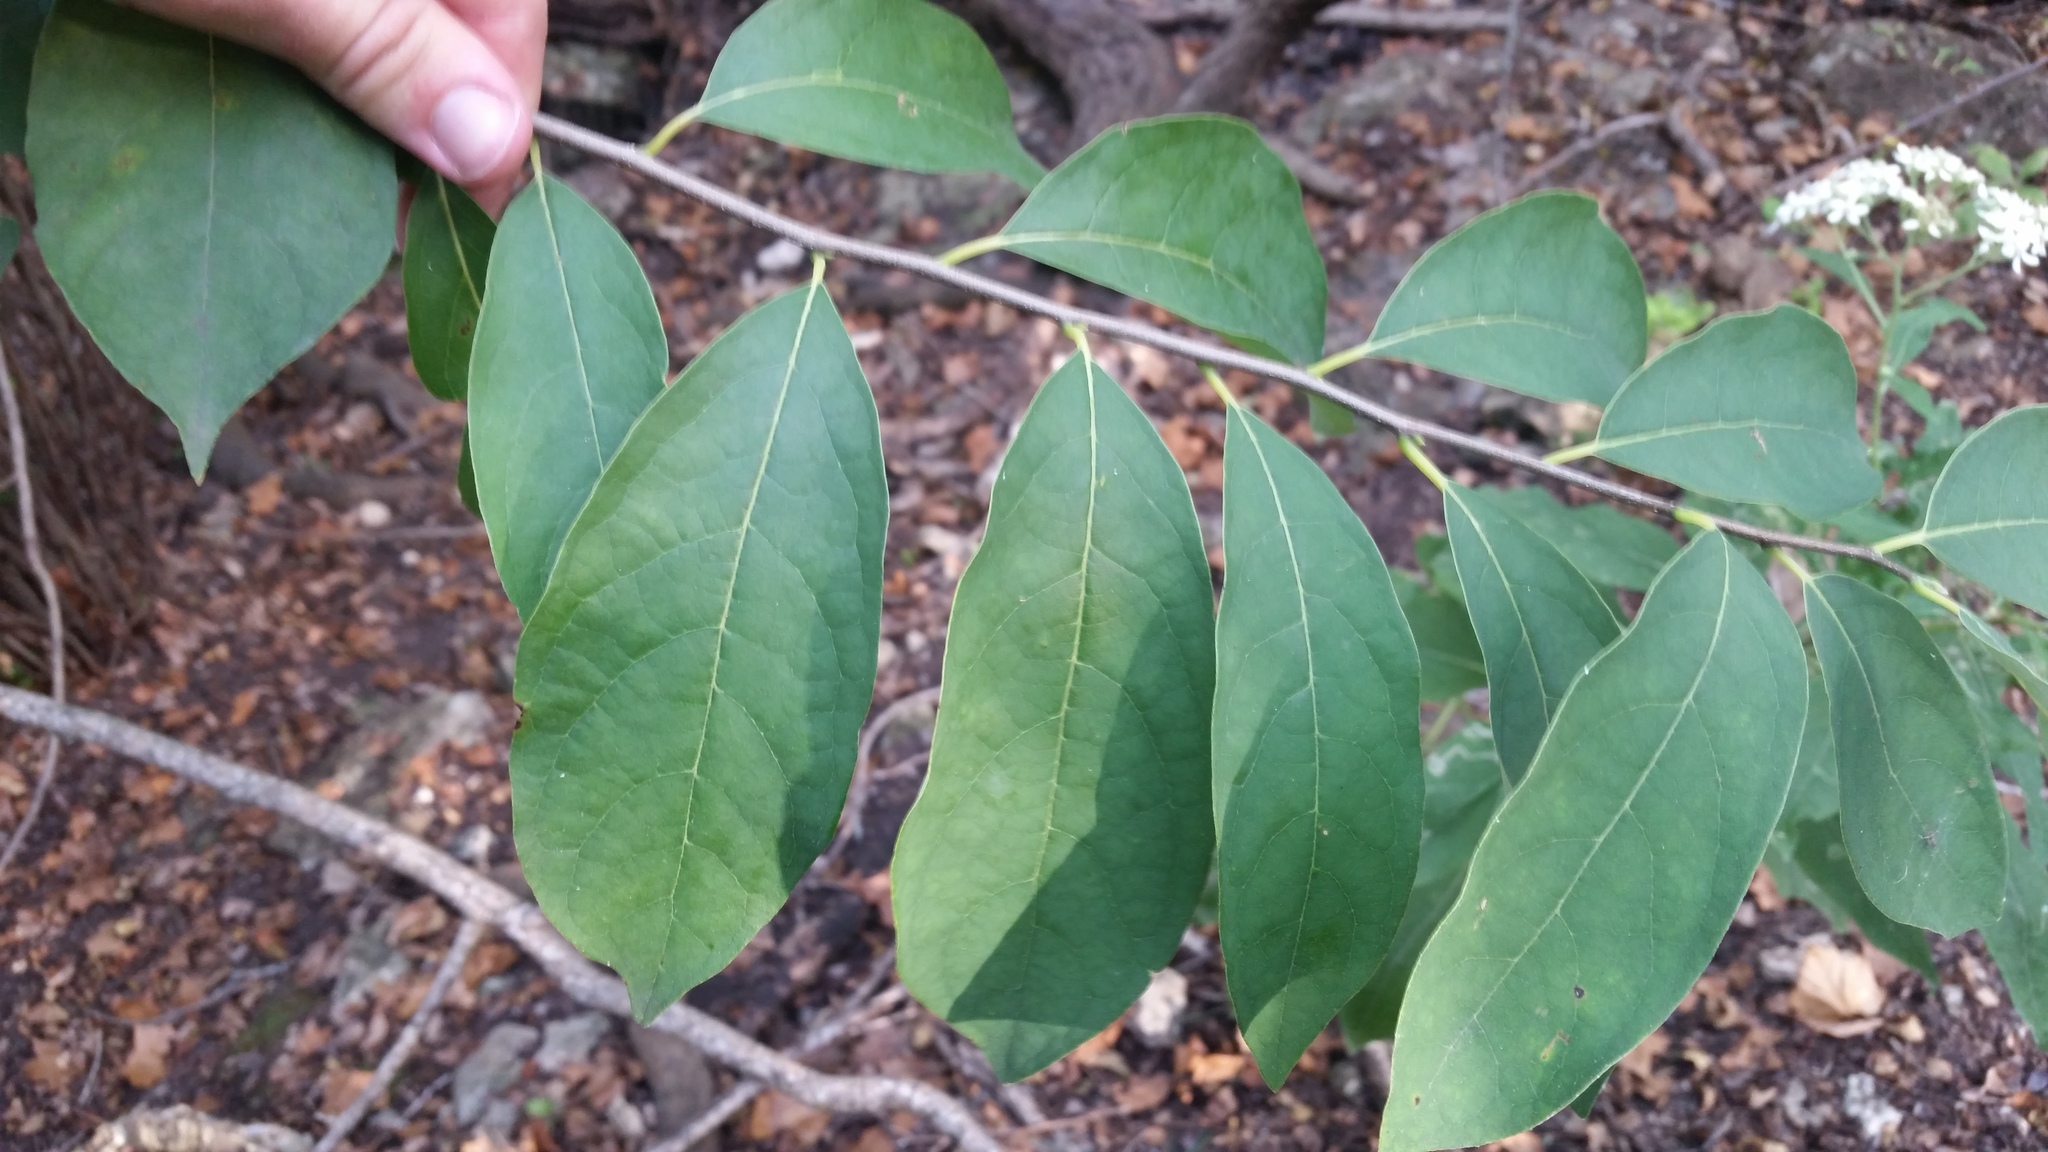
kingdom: Plantae
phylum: Tracheophyta
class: Magnoliopsida
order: Laurales
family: Lauraceae
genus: Lindera
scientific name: Lindera benzoin
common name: Spicebush
